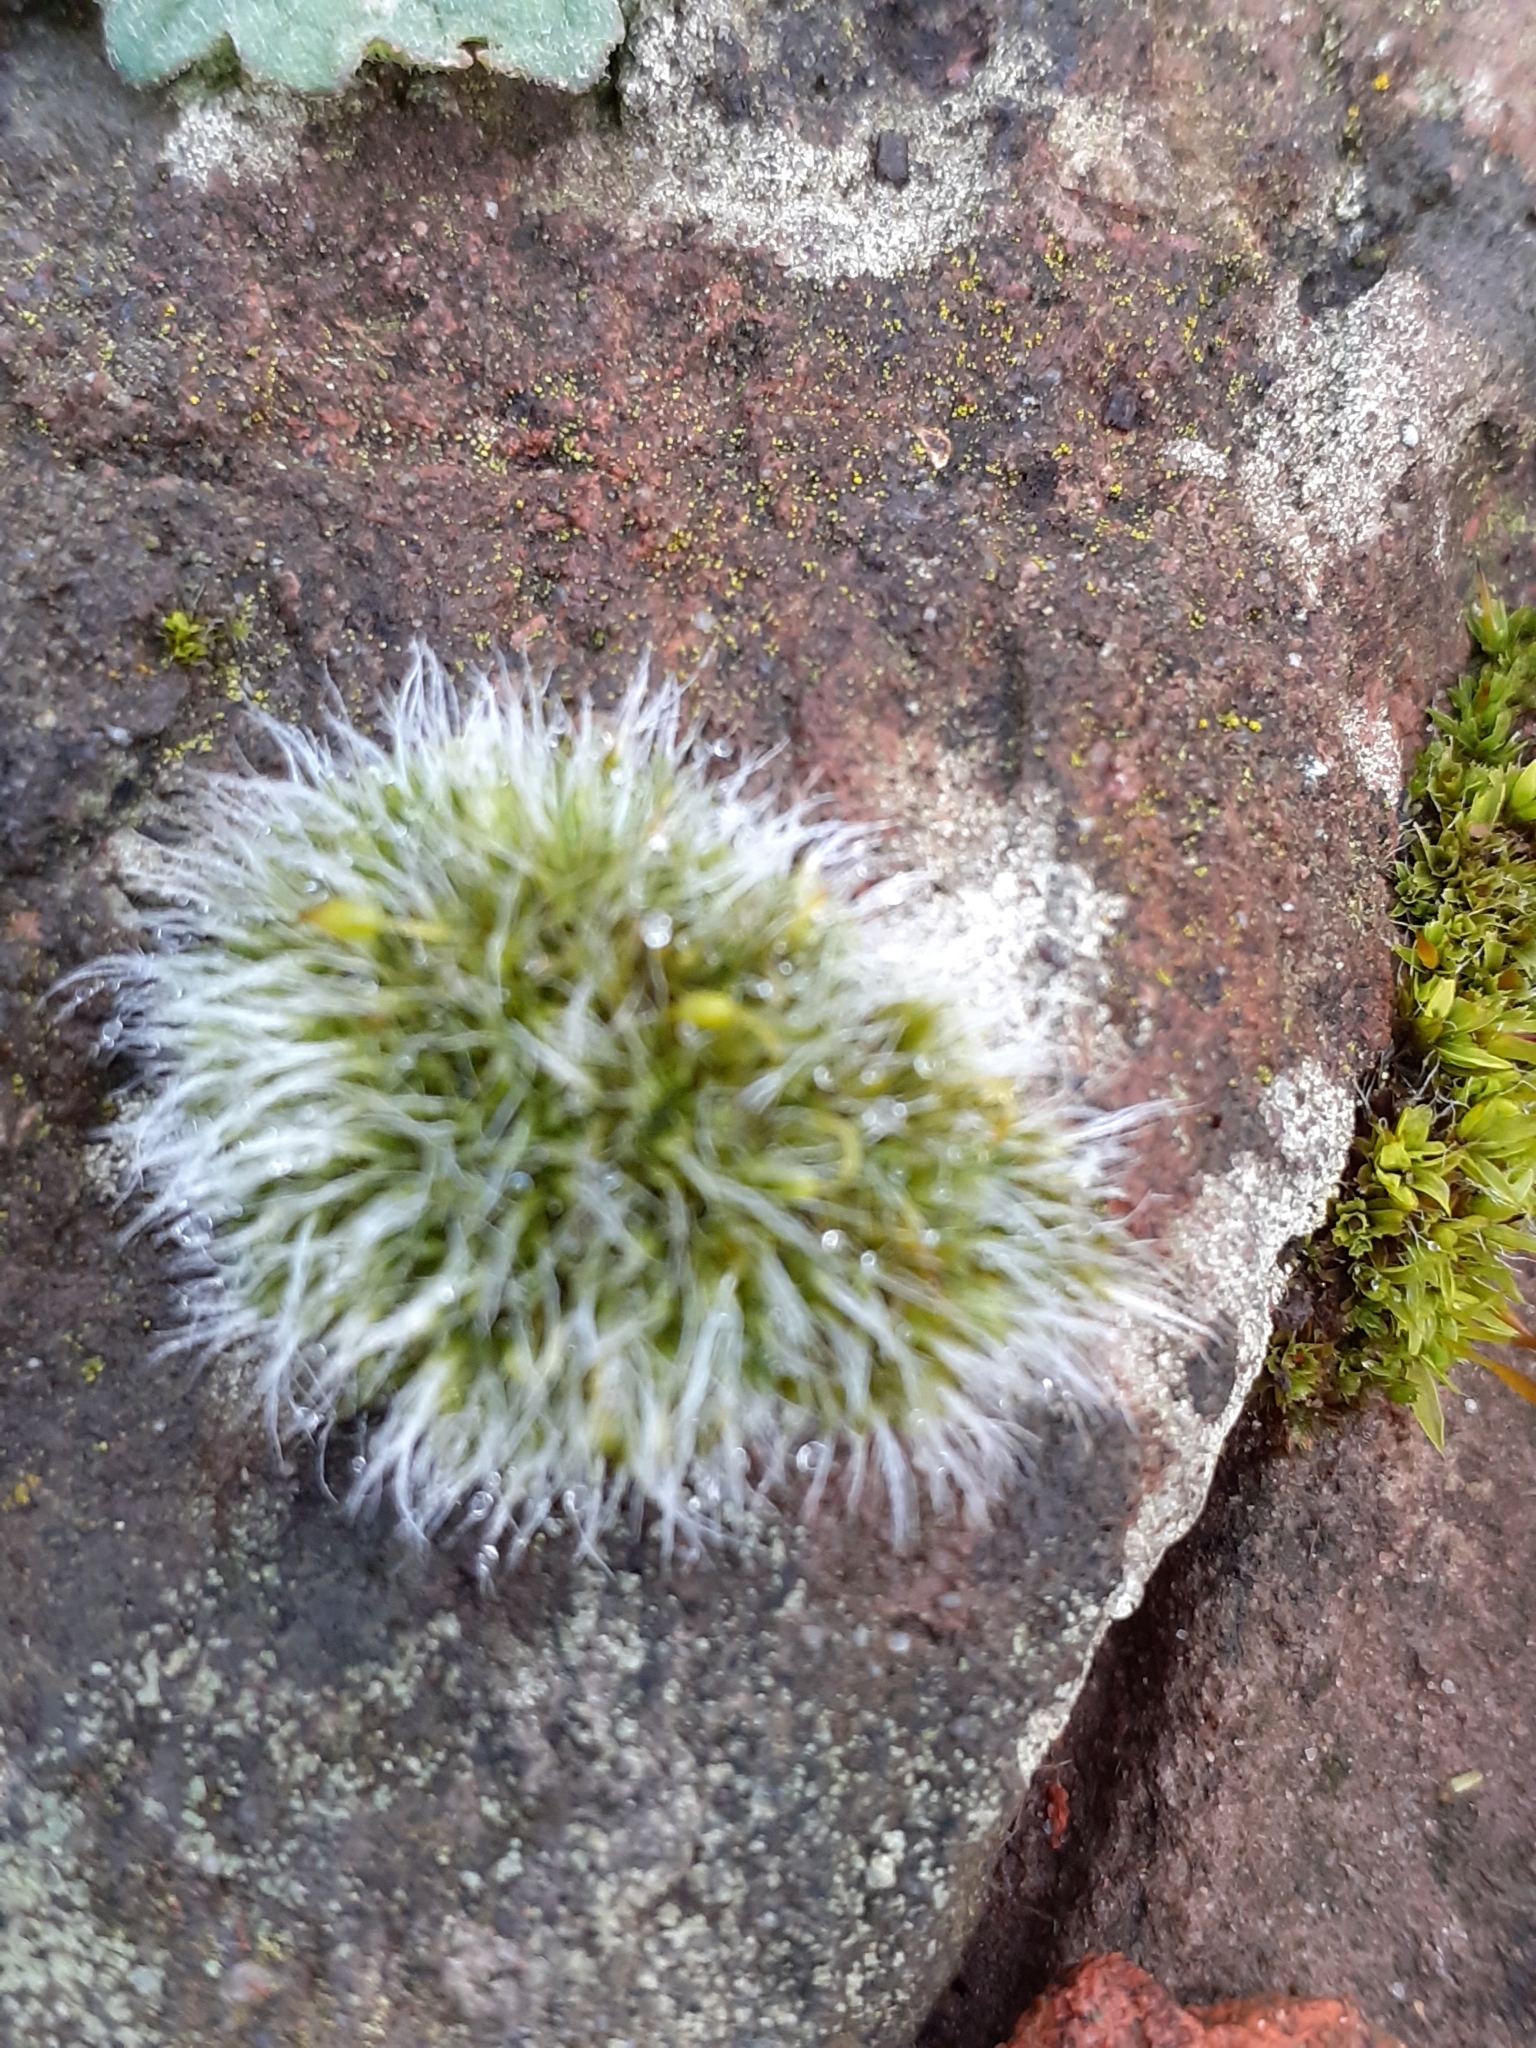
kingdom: Plantae
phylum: Bryophyta
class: Bryopsida
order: Grimmiales
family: Grimmiaceae
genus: Grimmia
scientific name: Grimmia pulvinata
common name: Grey-cushioned grimmia
